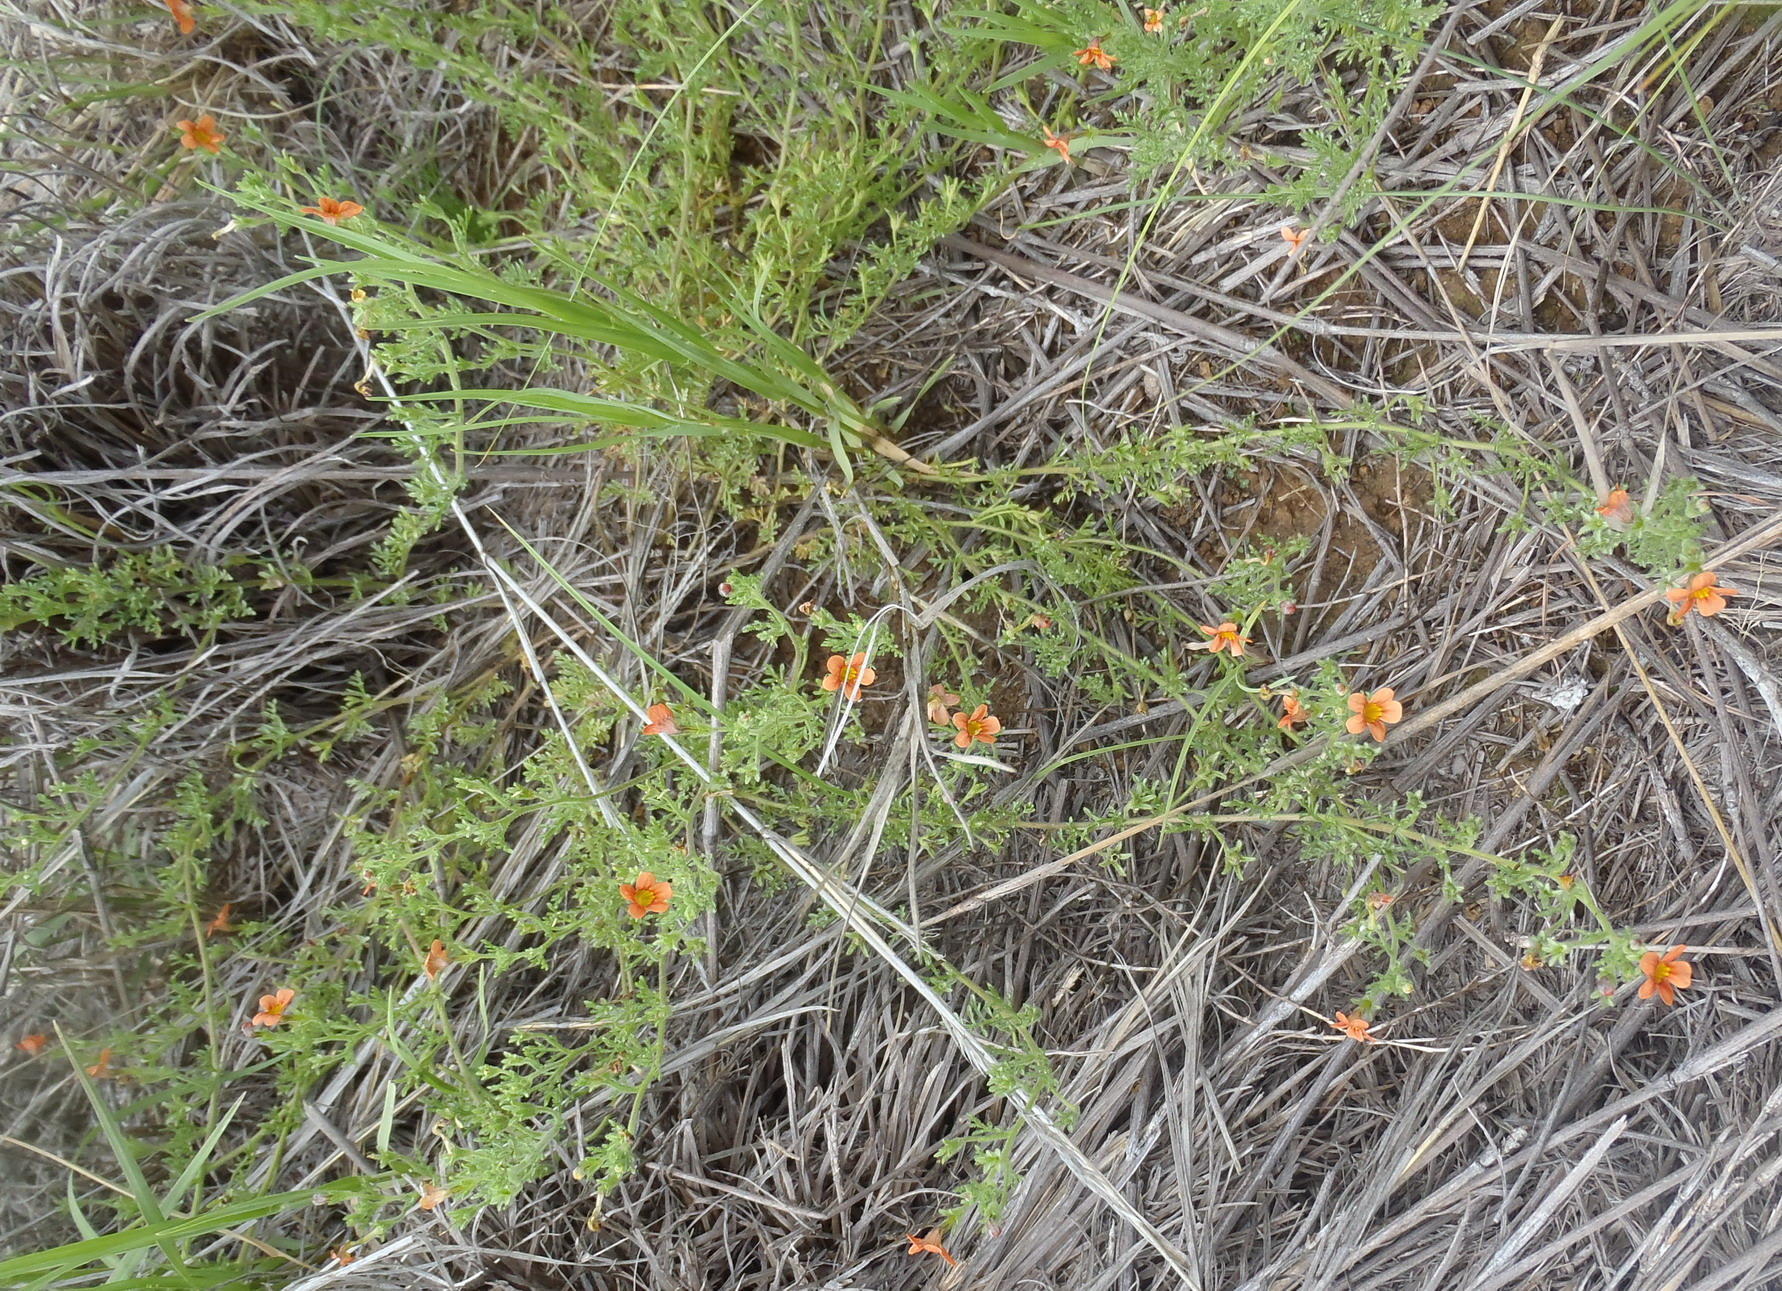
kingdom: Plantae
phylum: Tracheophyta
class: Magnoliopsida
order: Lamiales
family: Scrophulariaceae
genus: Jamesbrittenia
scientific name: Jamesbrittenia aurantiaca
